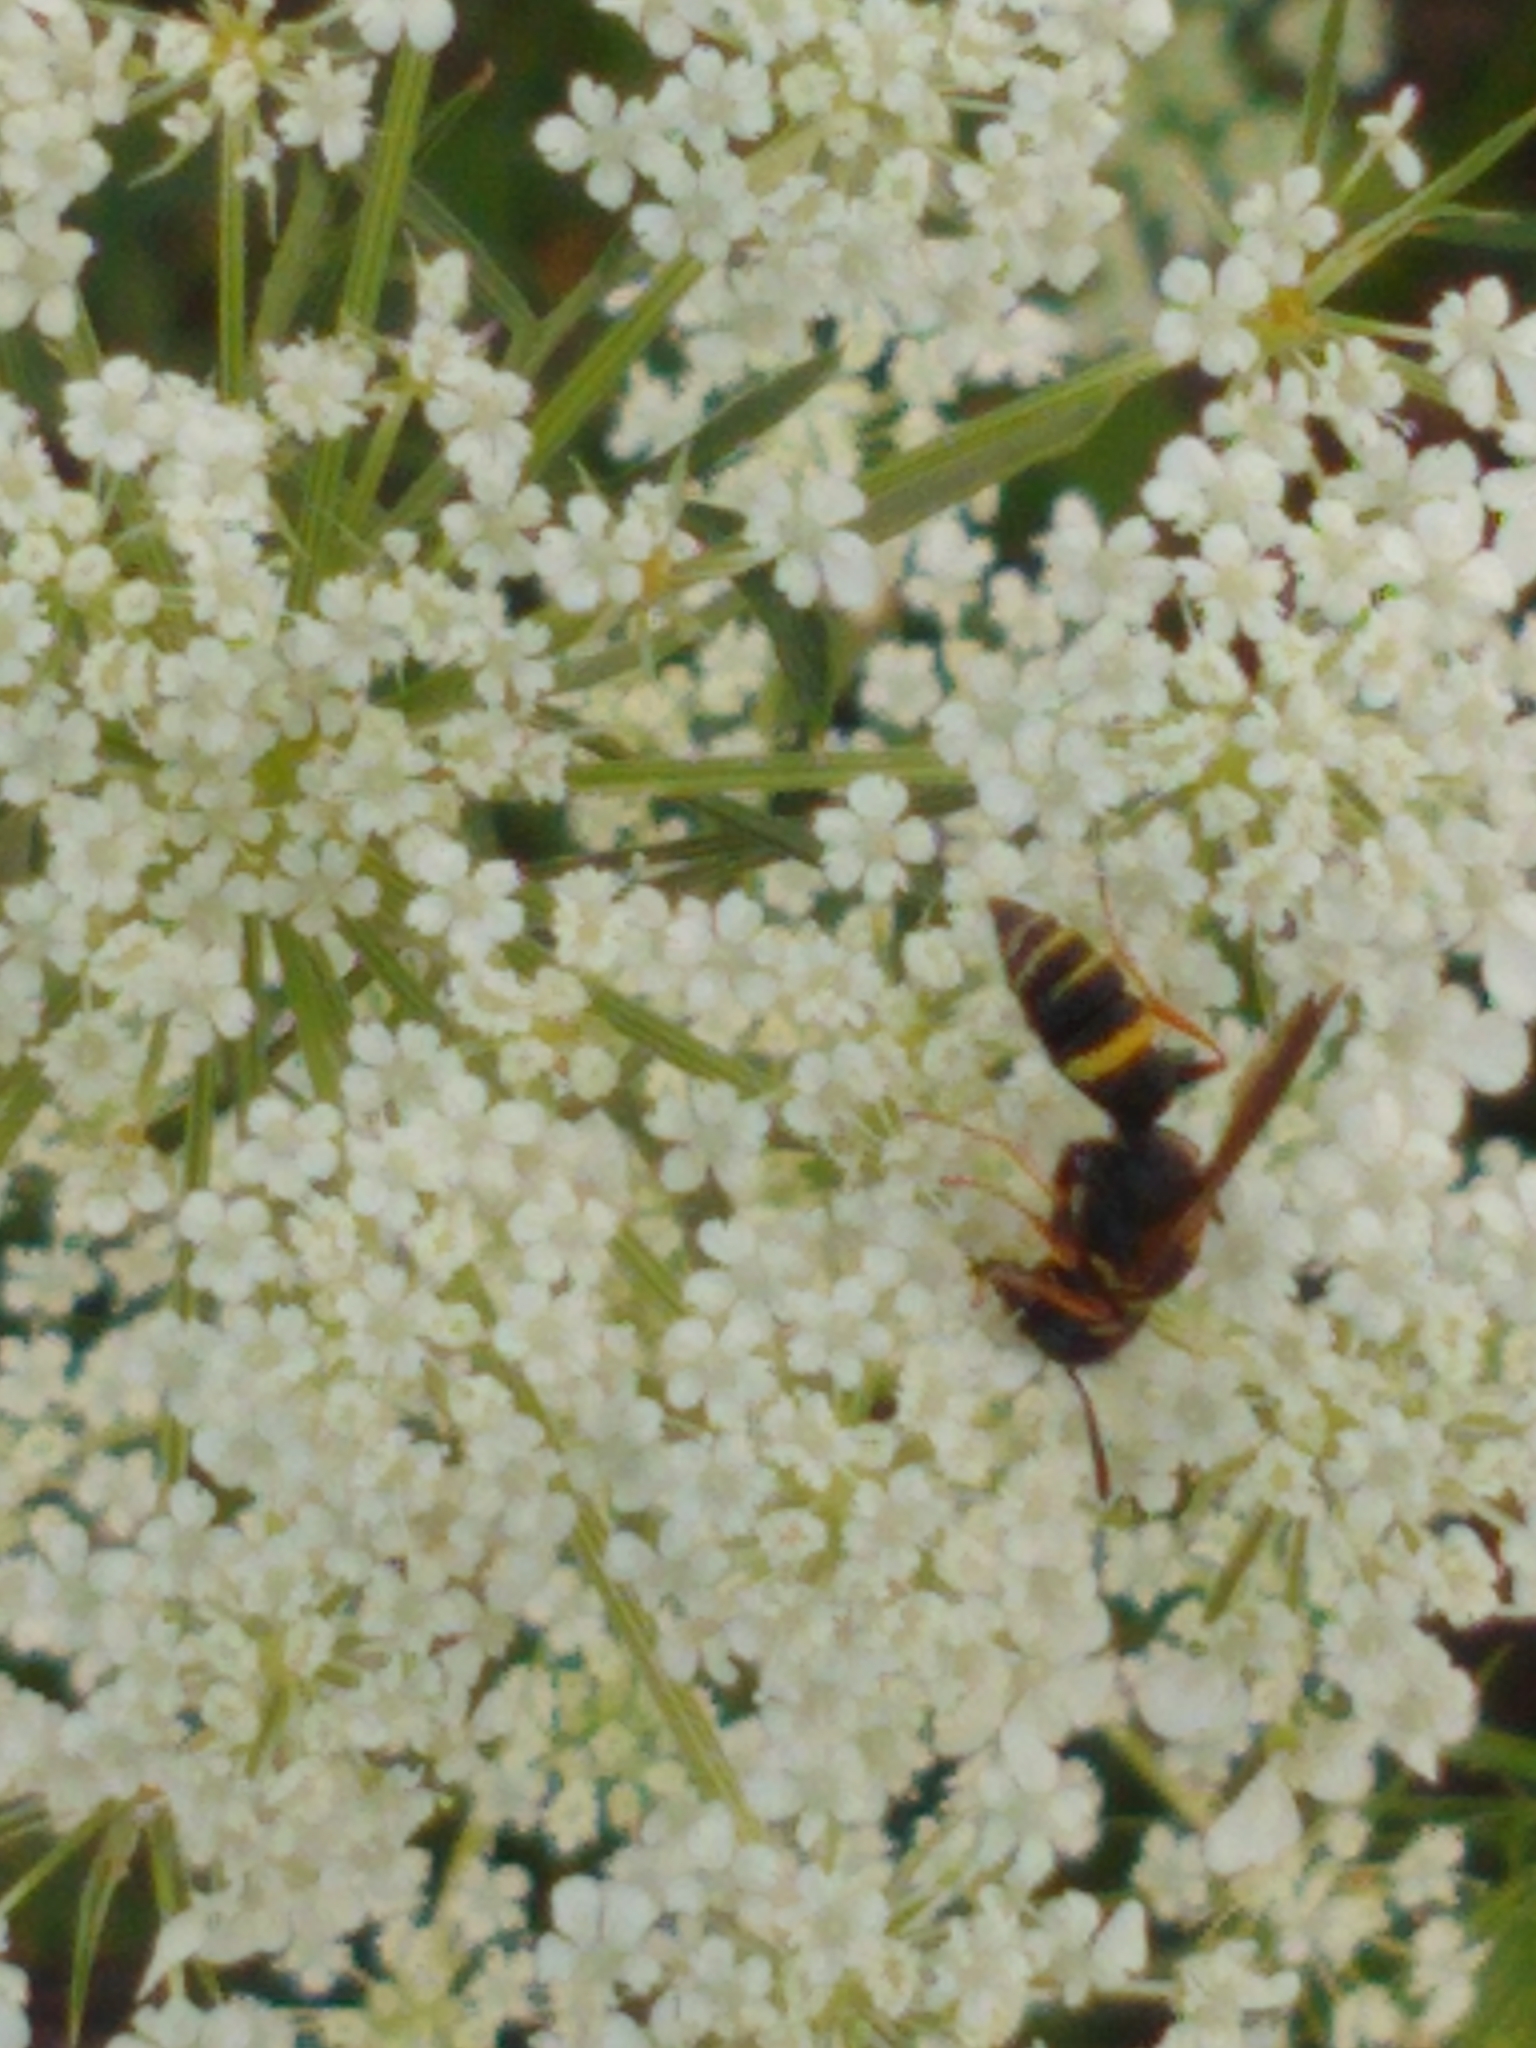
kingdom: Animalia
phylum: Arthropoda
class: Insecta
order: Hymenoptera
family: Crabronidae
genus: Philanthus
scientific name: Philanthus gibbosus
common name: Humped beewolf
